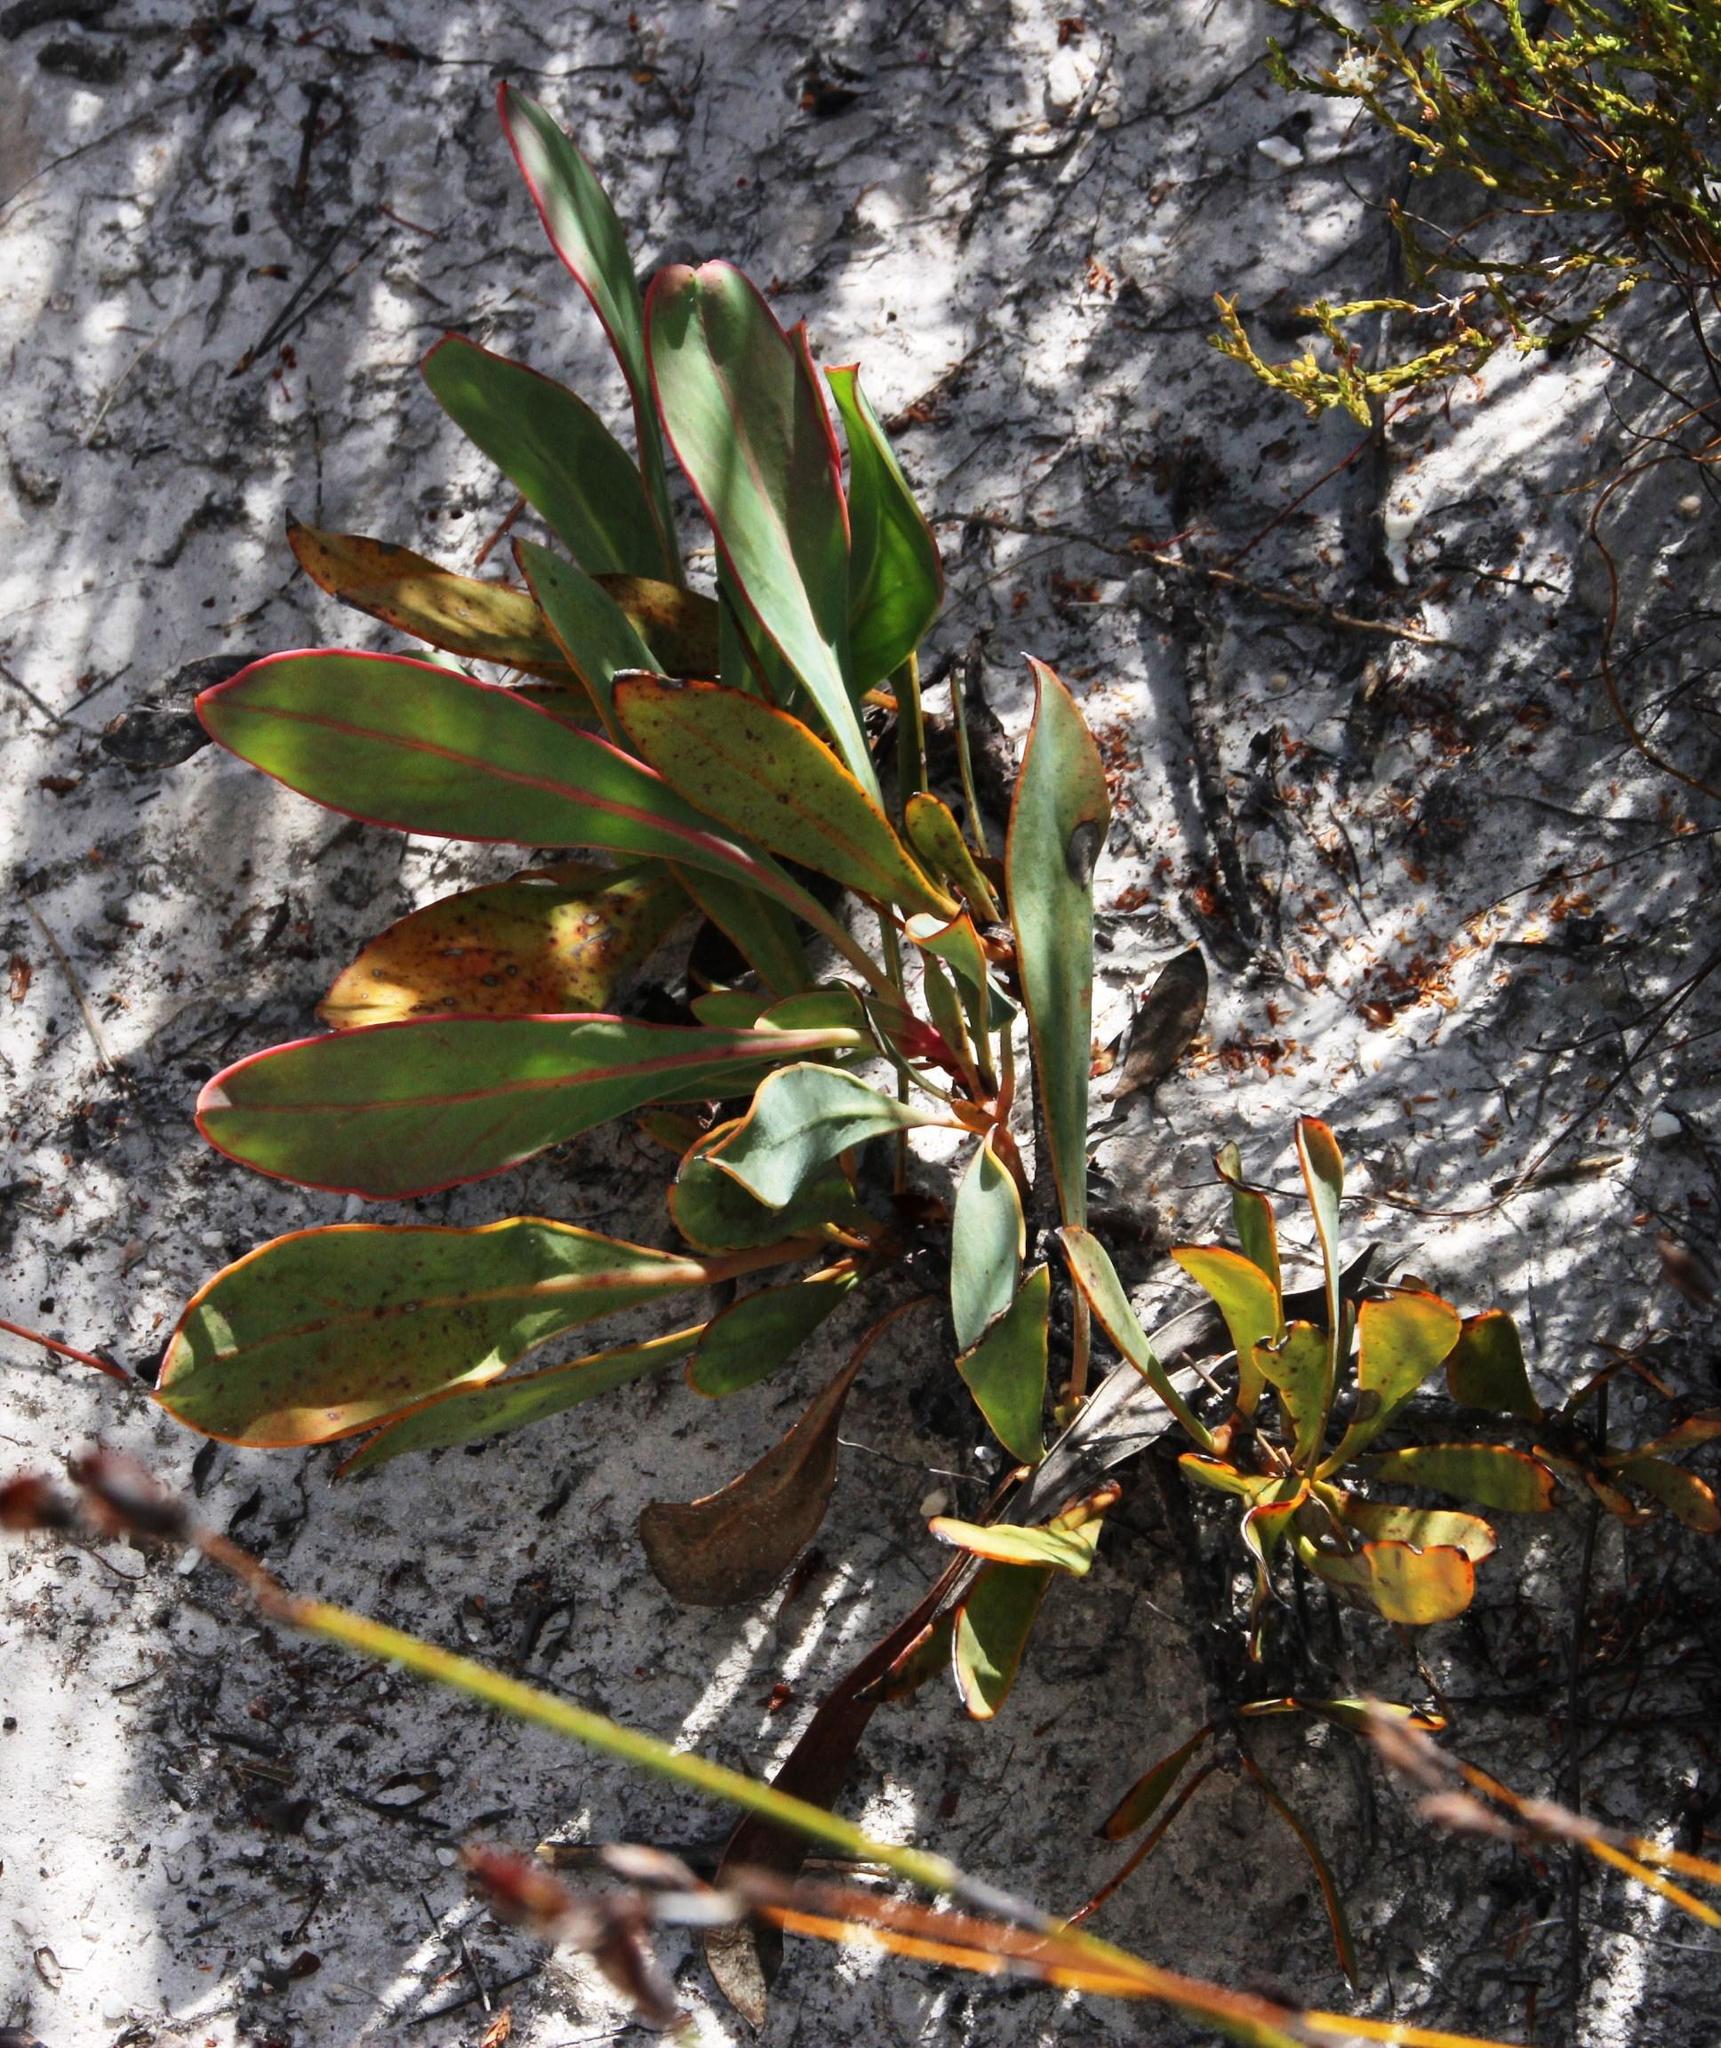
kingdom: Plantae
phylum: Tracheophyta
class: Magnoliopsida
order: Proteales
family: Proteaceae
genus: Protea
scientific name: Protea acaulos
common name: Common ground sugarbush
